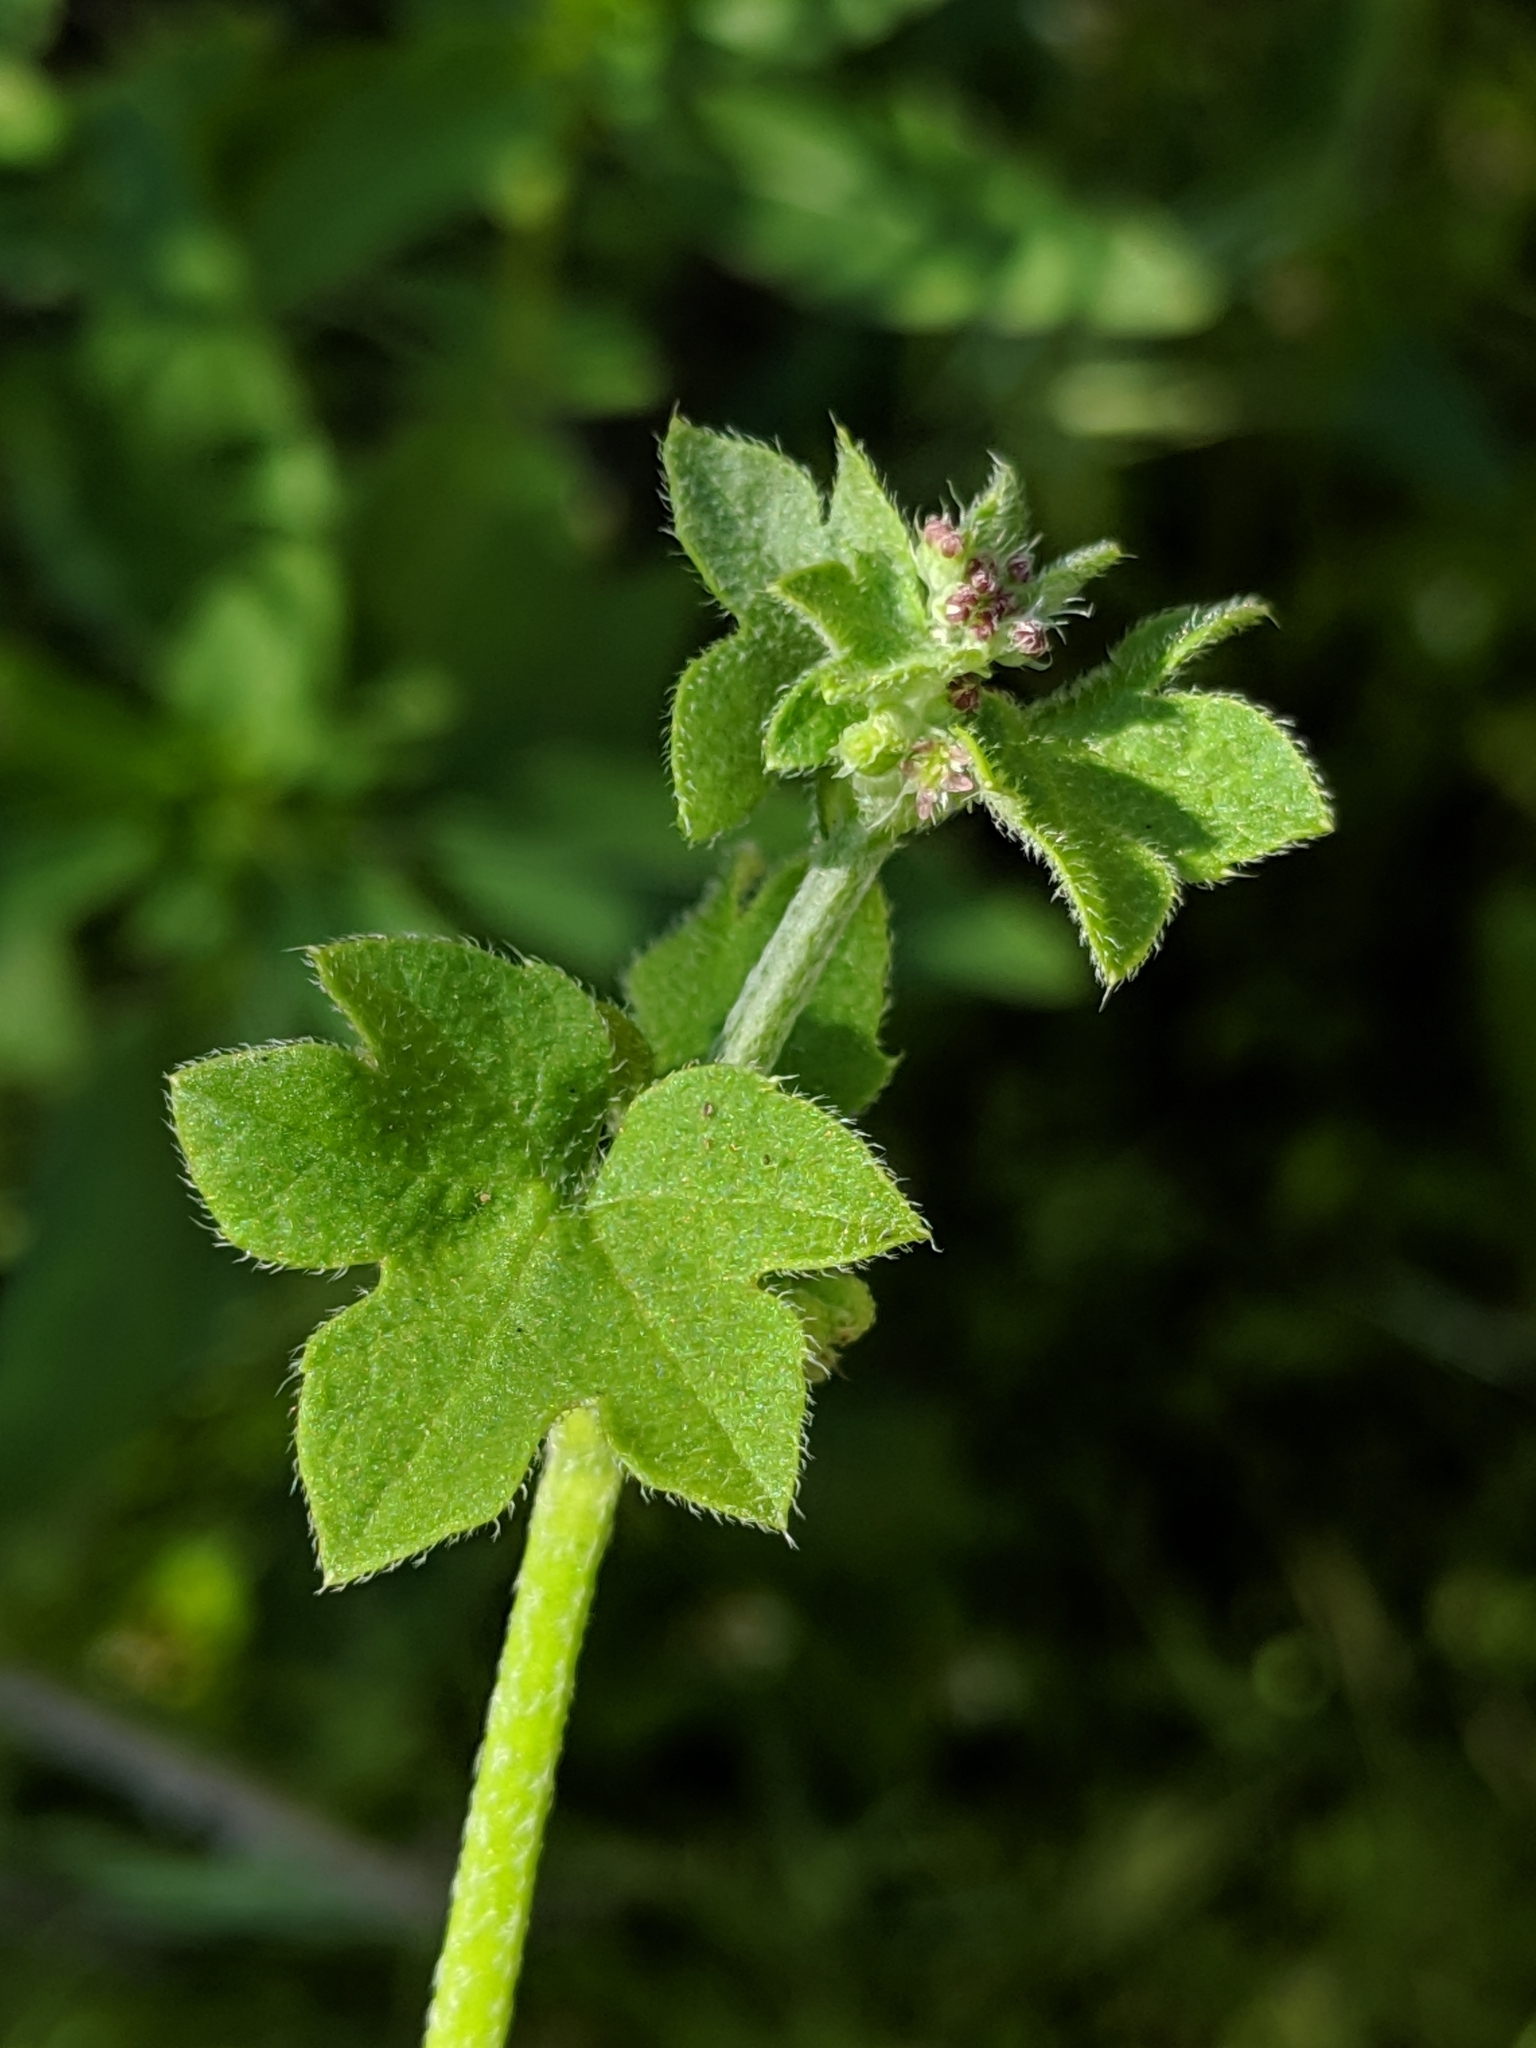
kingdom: Plantae
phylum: Tracheophyta
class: Magnoliopsida
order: Apiales
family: Apiaceae
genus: Bowlesia
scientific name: Bowlesia incana
